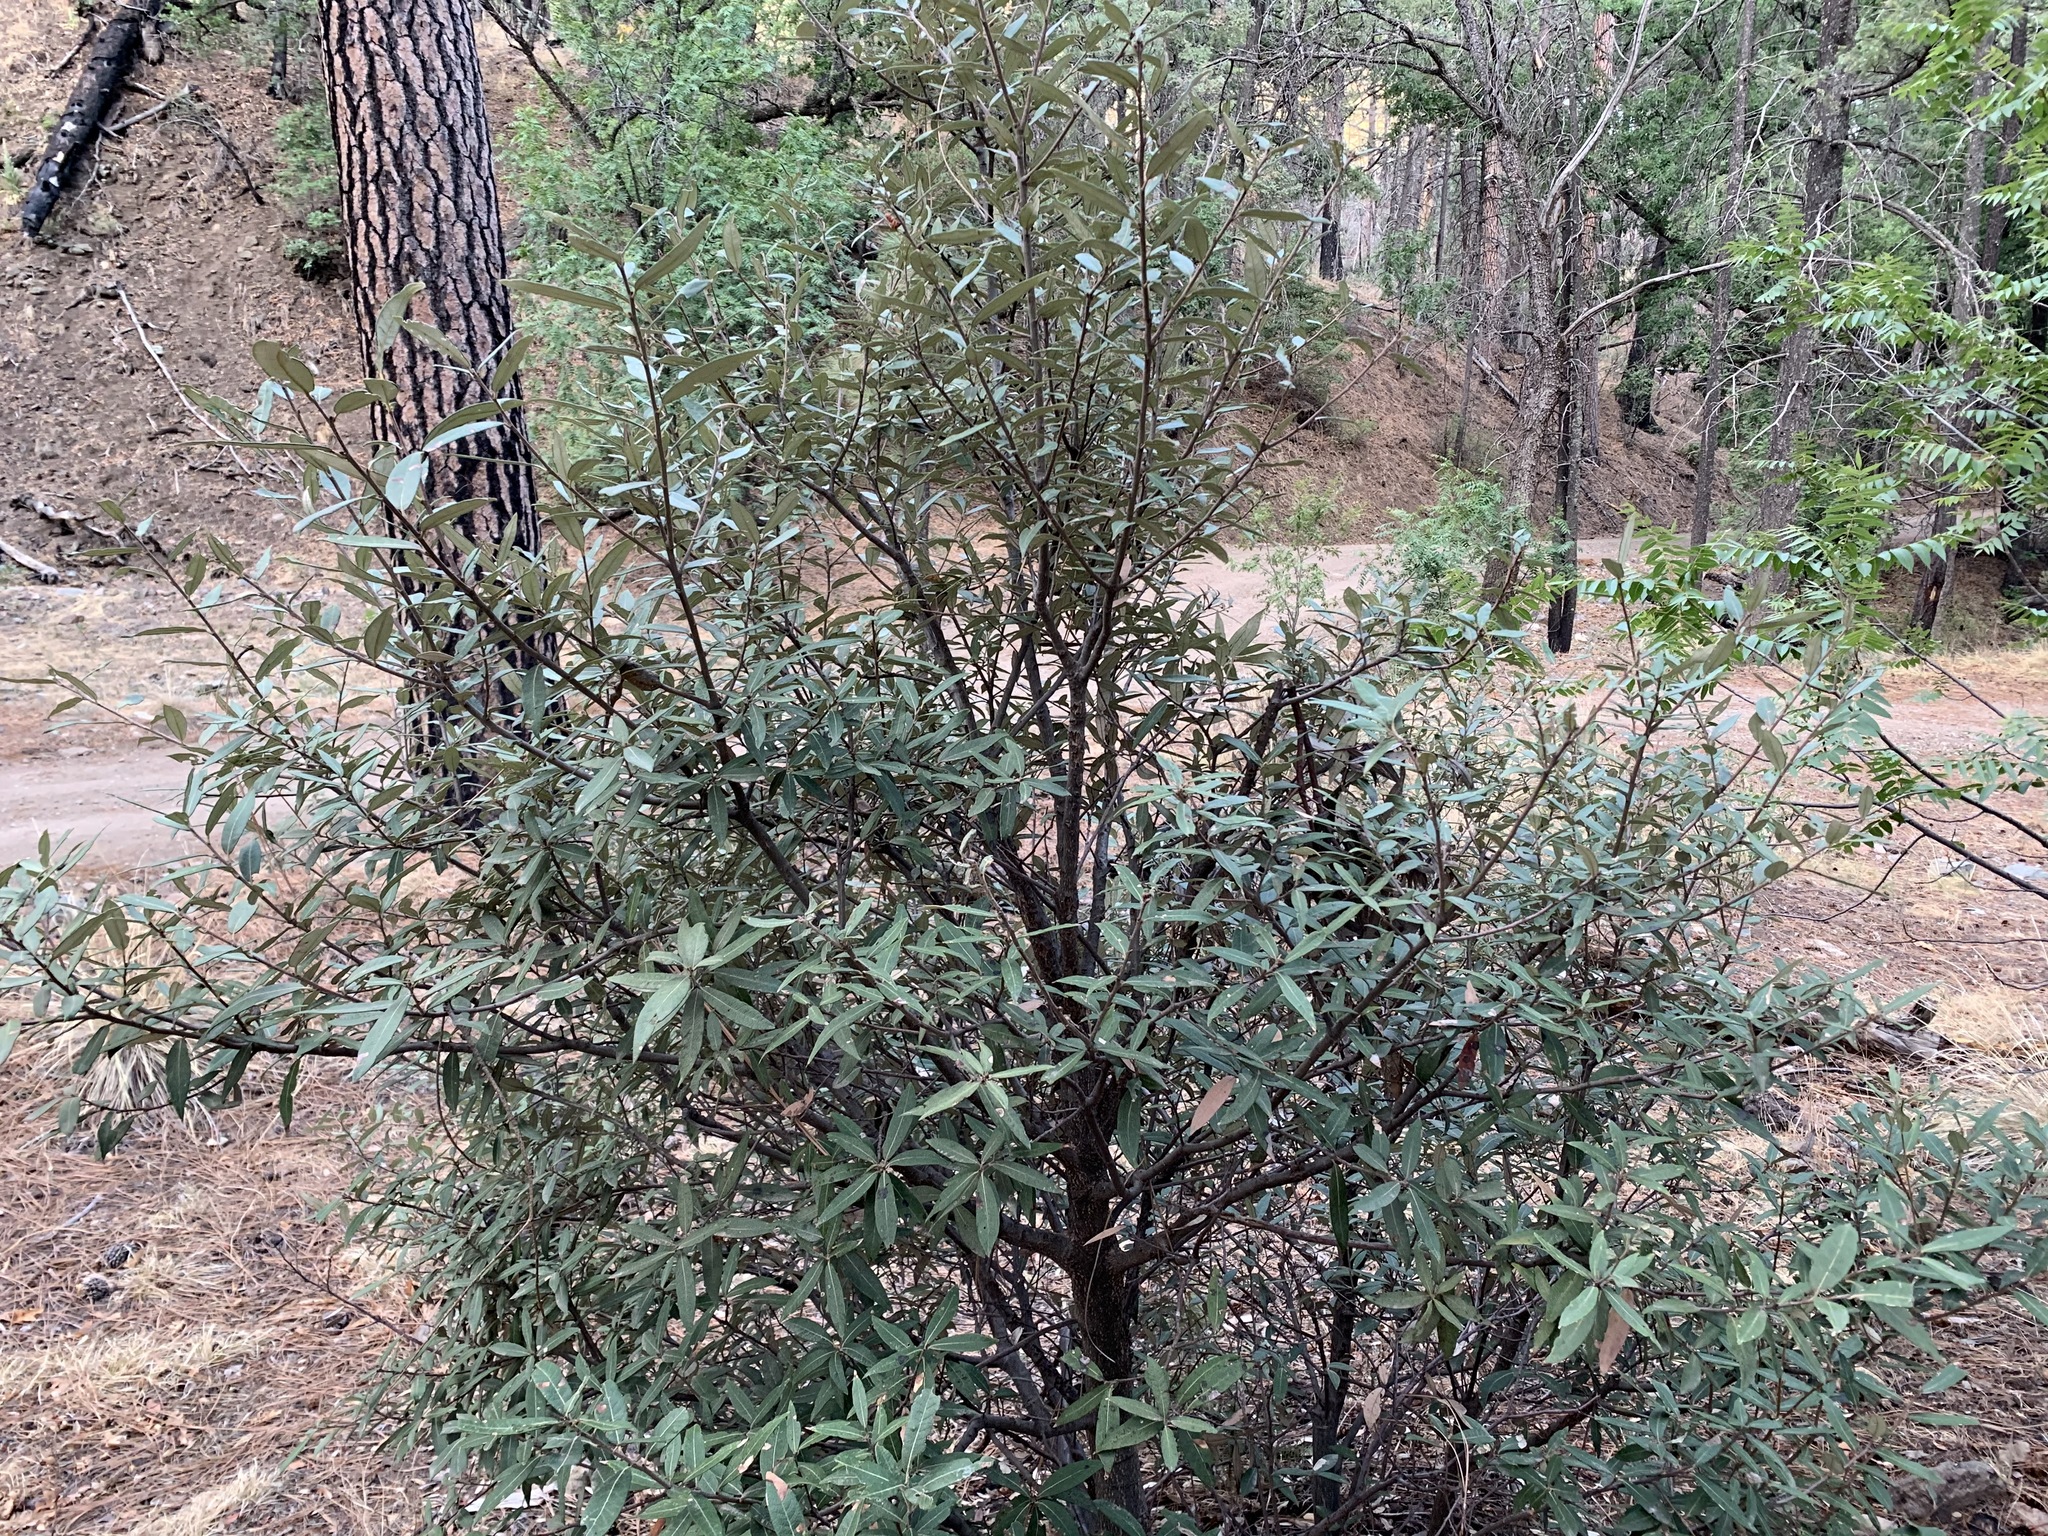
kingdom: Animalia
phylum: Arthropoda
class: Insecta
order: Hymenoptera
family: Cynipidae
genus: Kokkocynips
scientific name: Kokkocynips coxii
